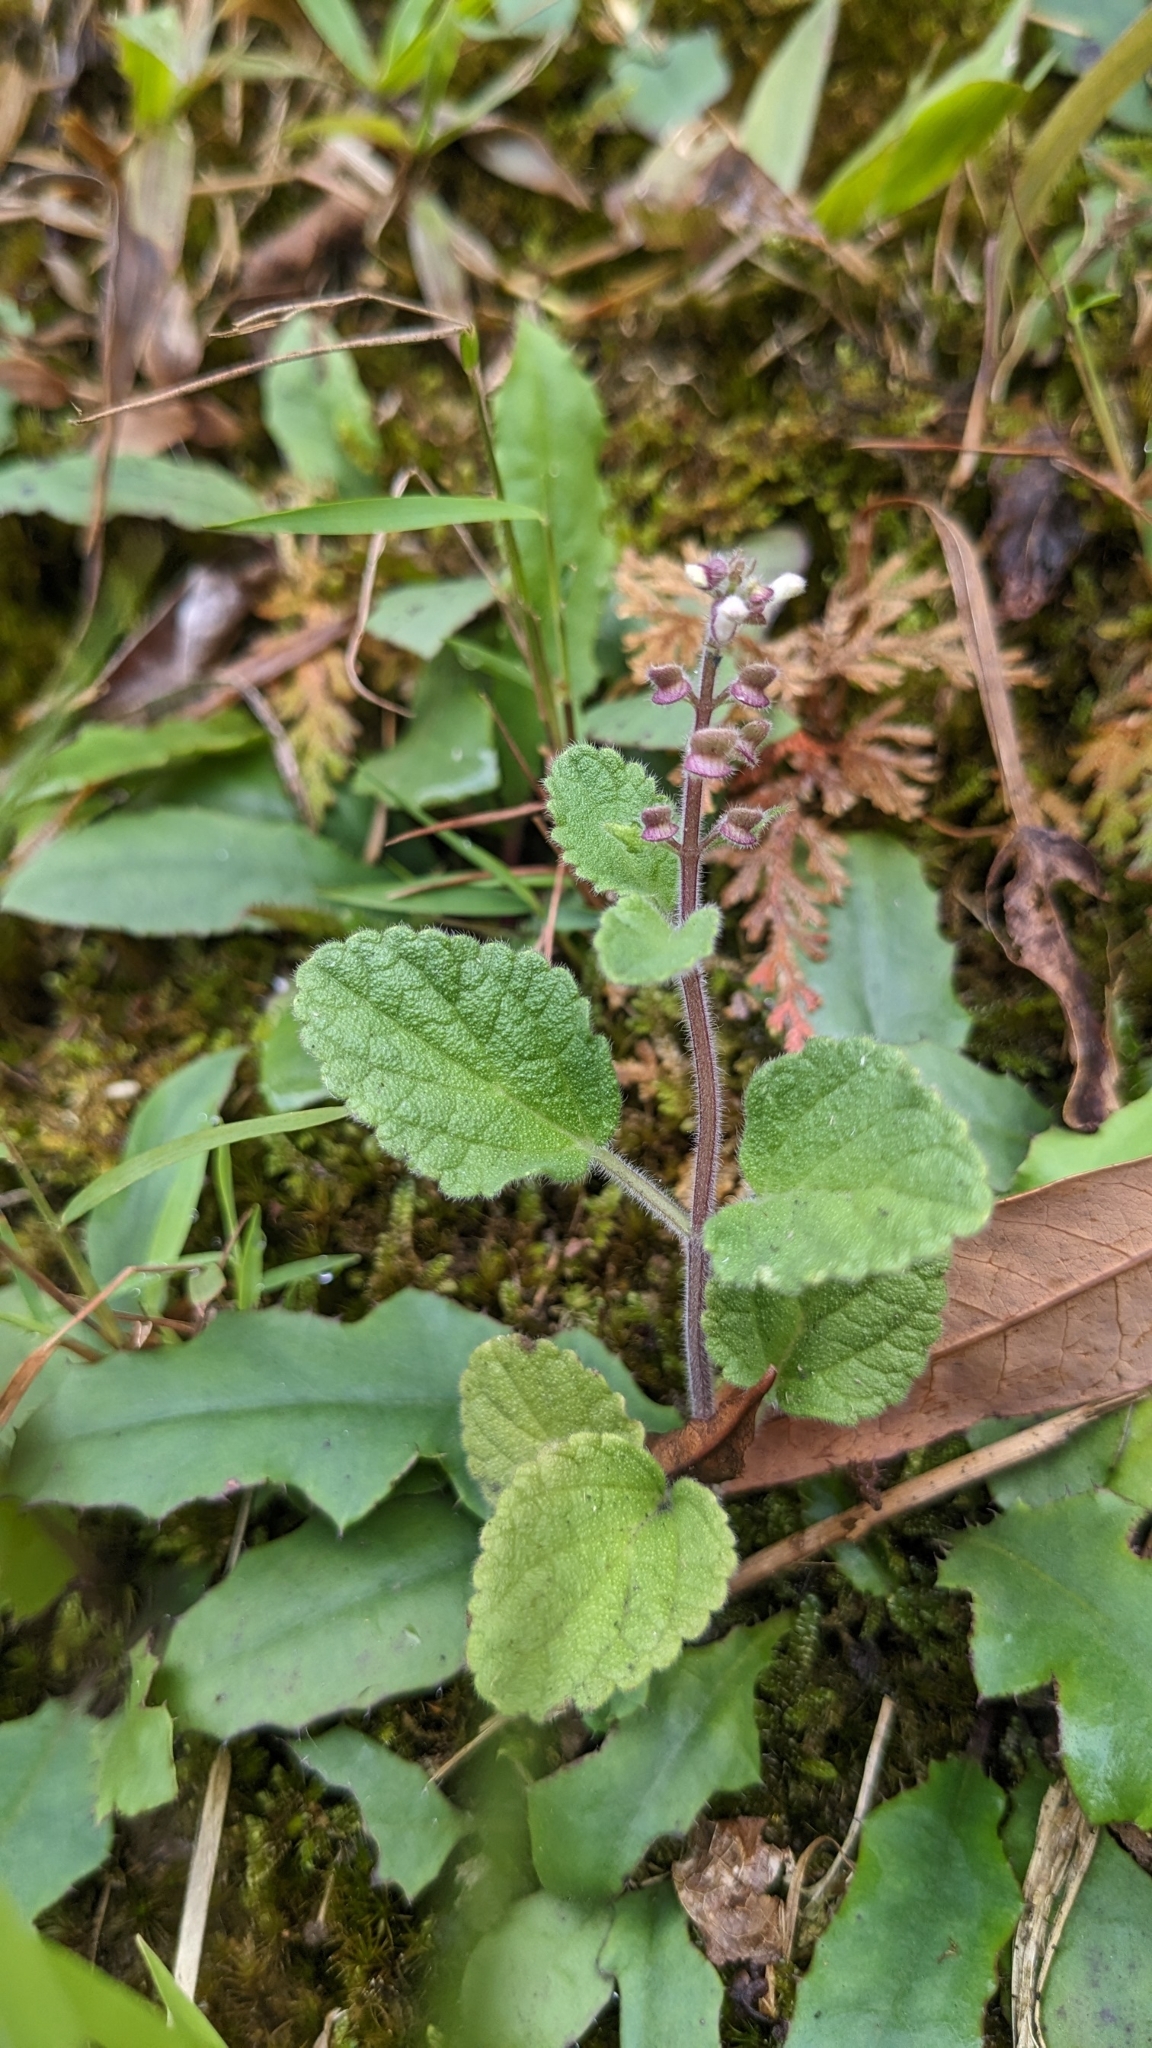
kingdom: Plantae
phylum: Tracheophyta
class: Magnoliopsida
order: Lamiales
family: Lamiaceae
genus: Scutellaria
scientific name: Scutellaria indica
